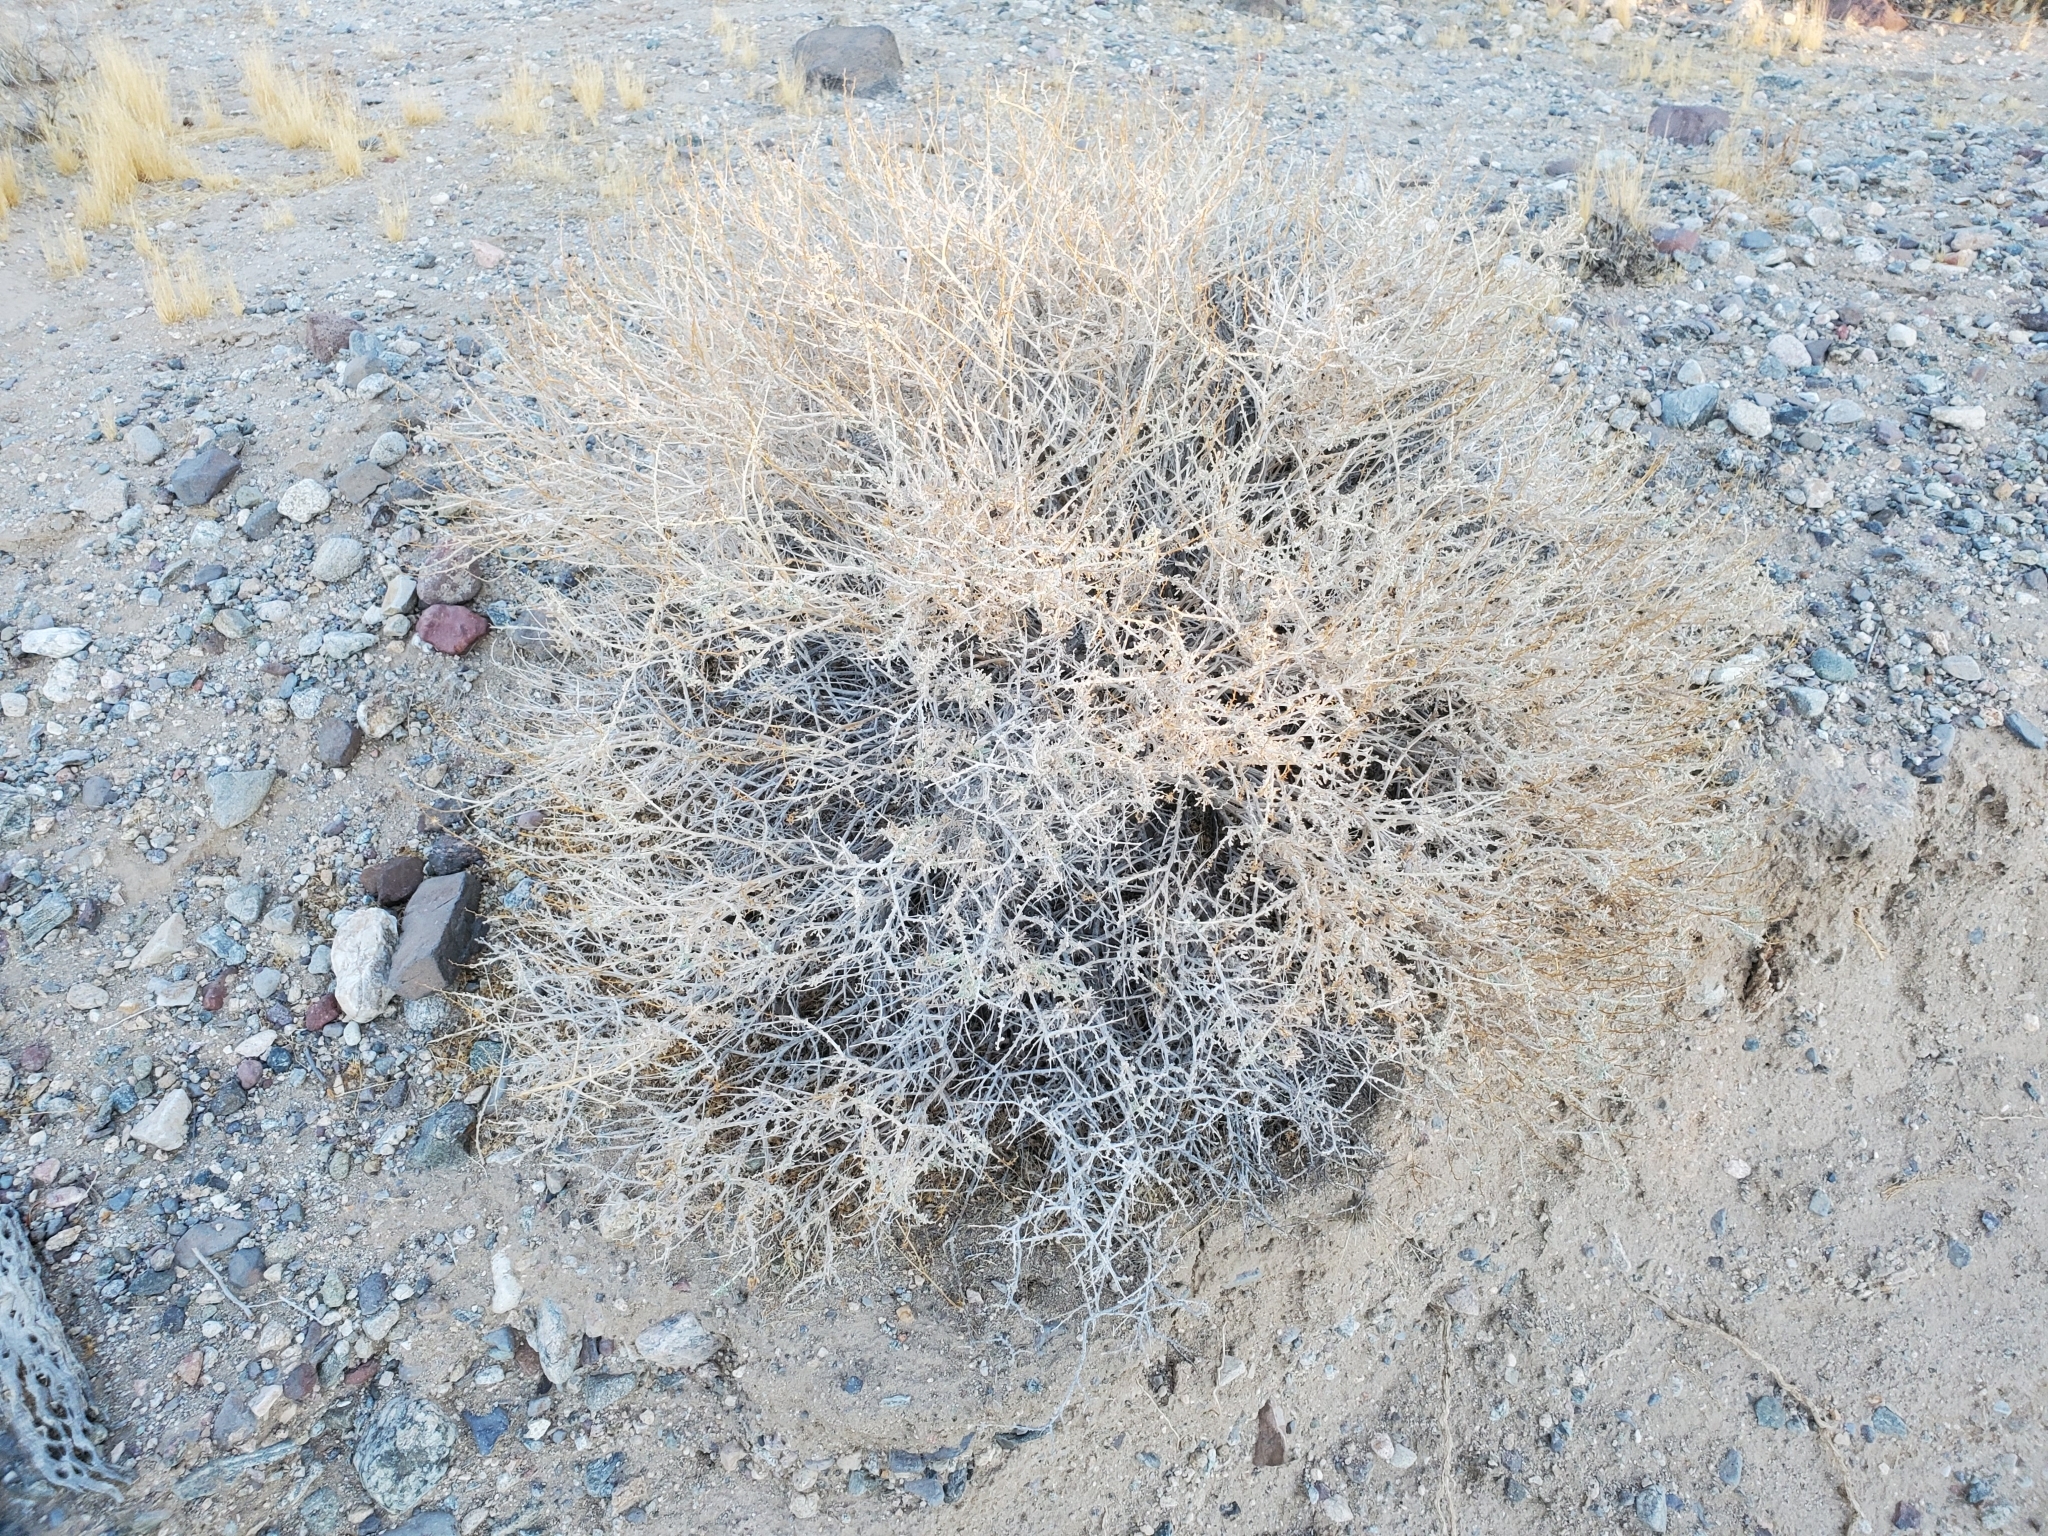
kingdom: Plantae
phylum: Tracheophyta
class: Magnoliopsida
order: Asterales
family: Asteraceae
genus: Ambrosia
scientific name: Ambrosia dumosa
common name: Bur-sage
